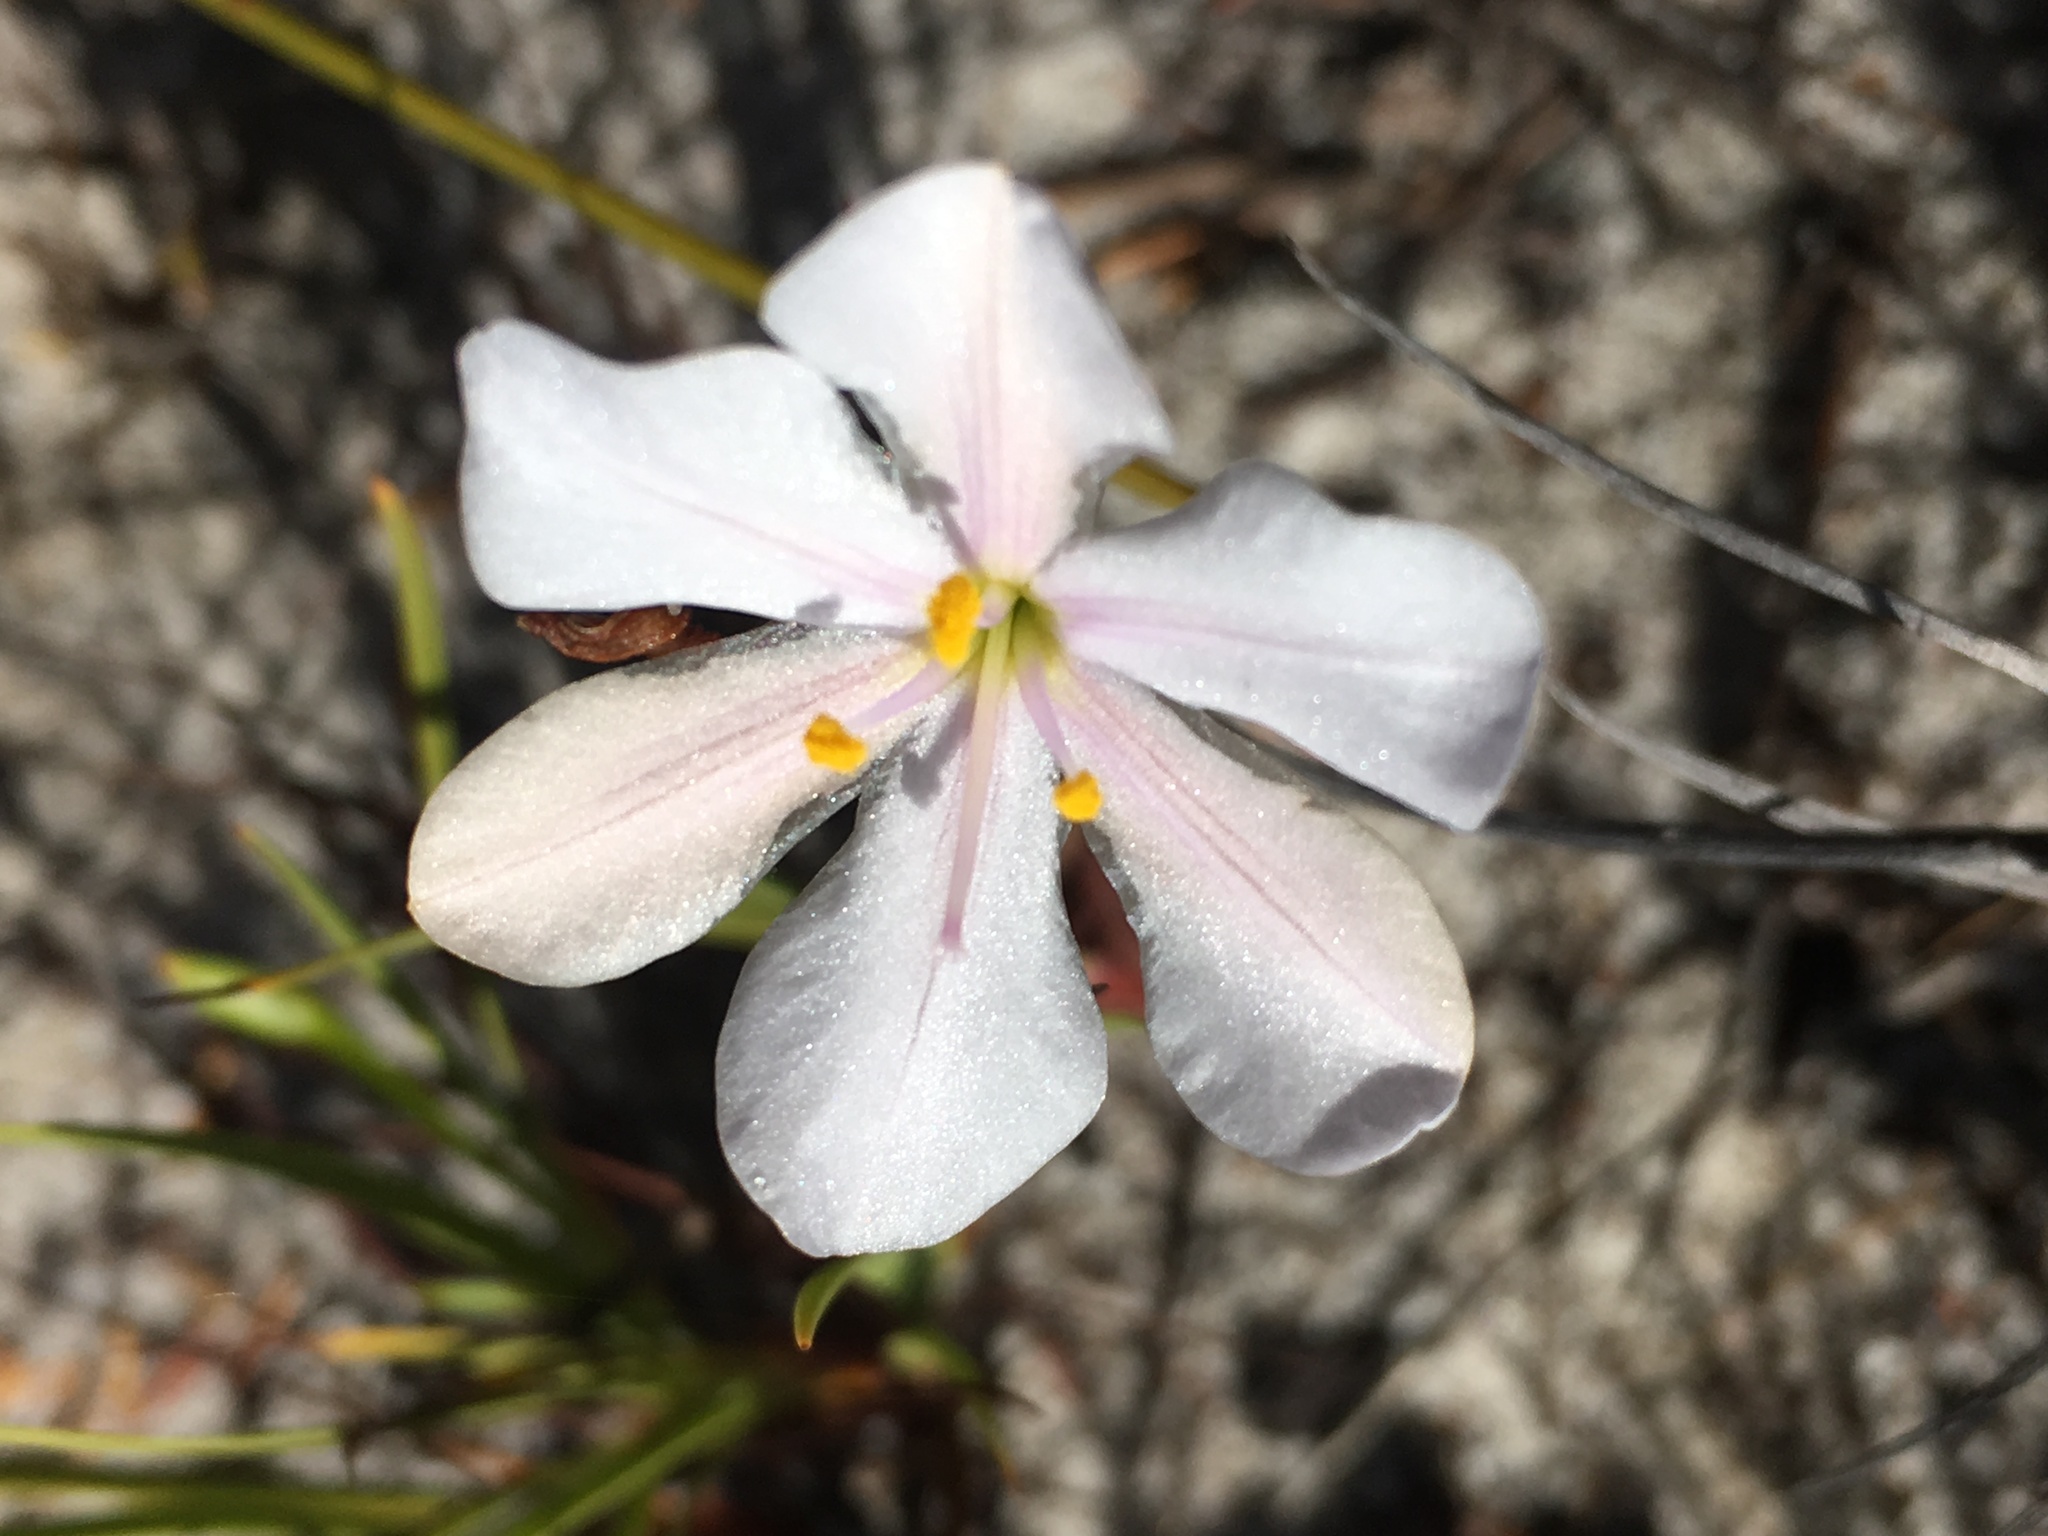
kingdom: Plantae
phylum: Tracheophyta
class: Liliopsida
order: Asparagales
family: Iridaceae
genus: Aristea
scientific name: Aristea africana
